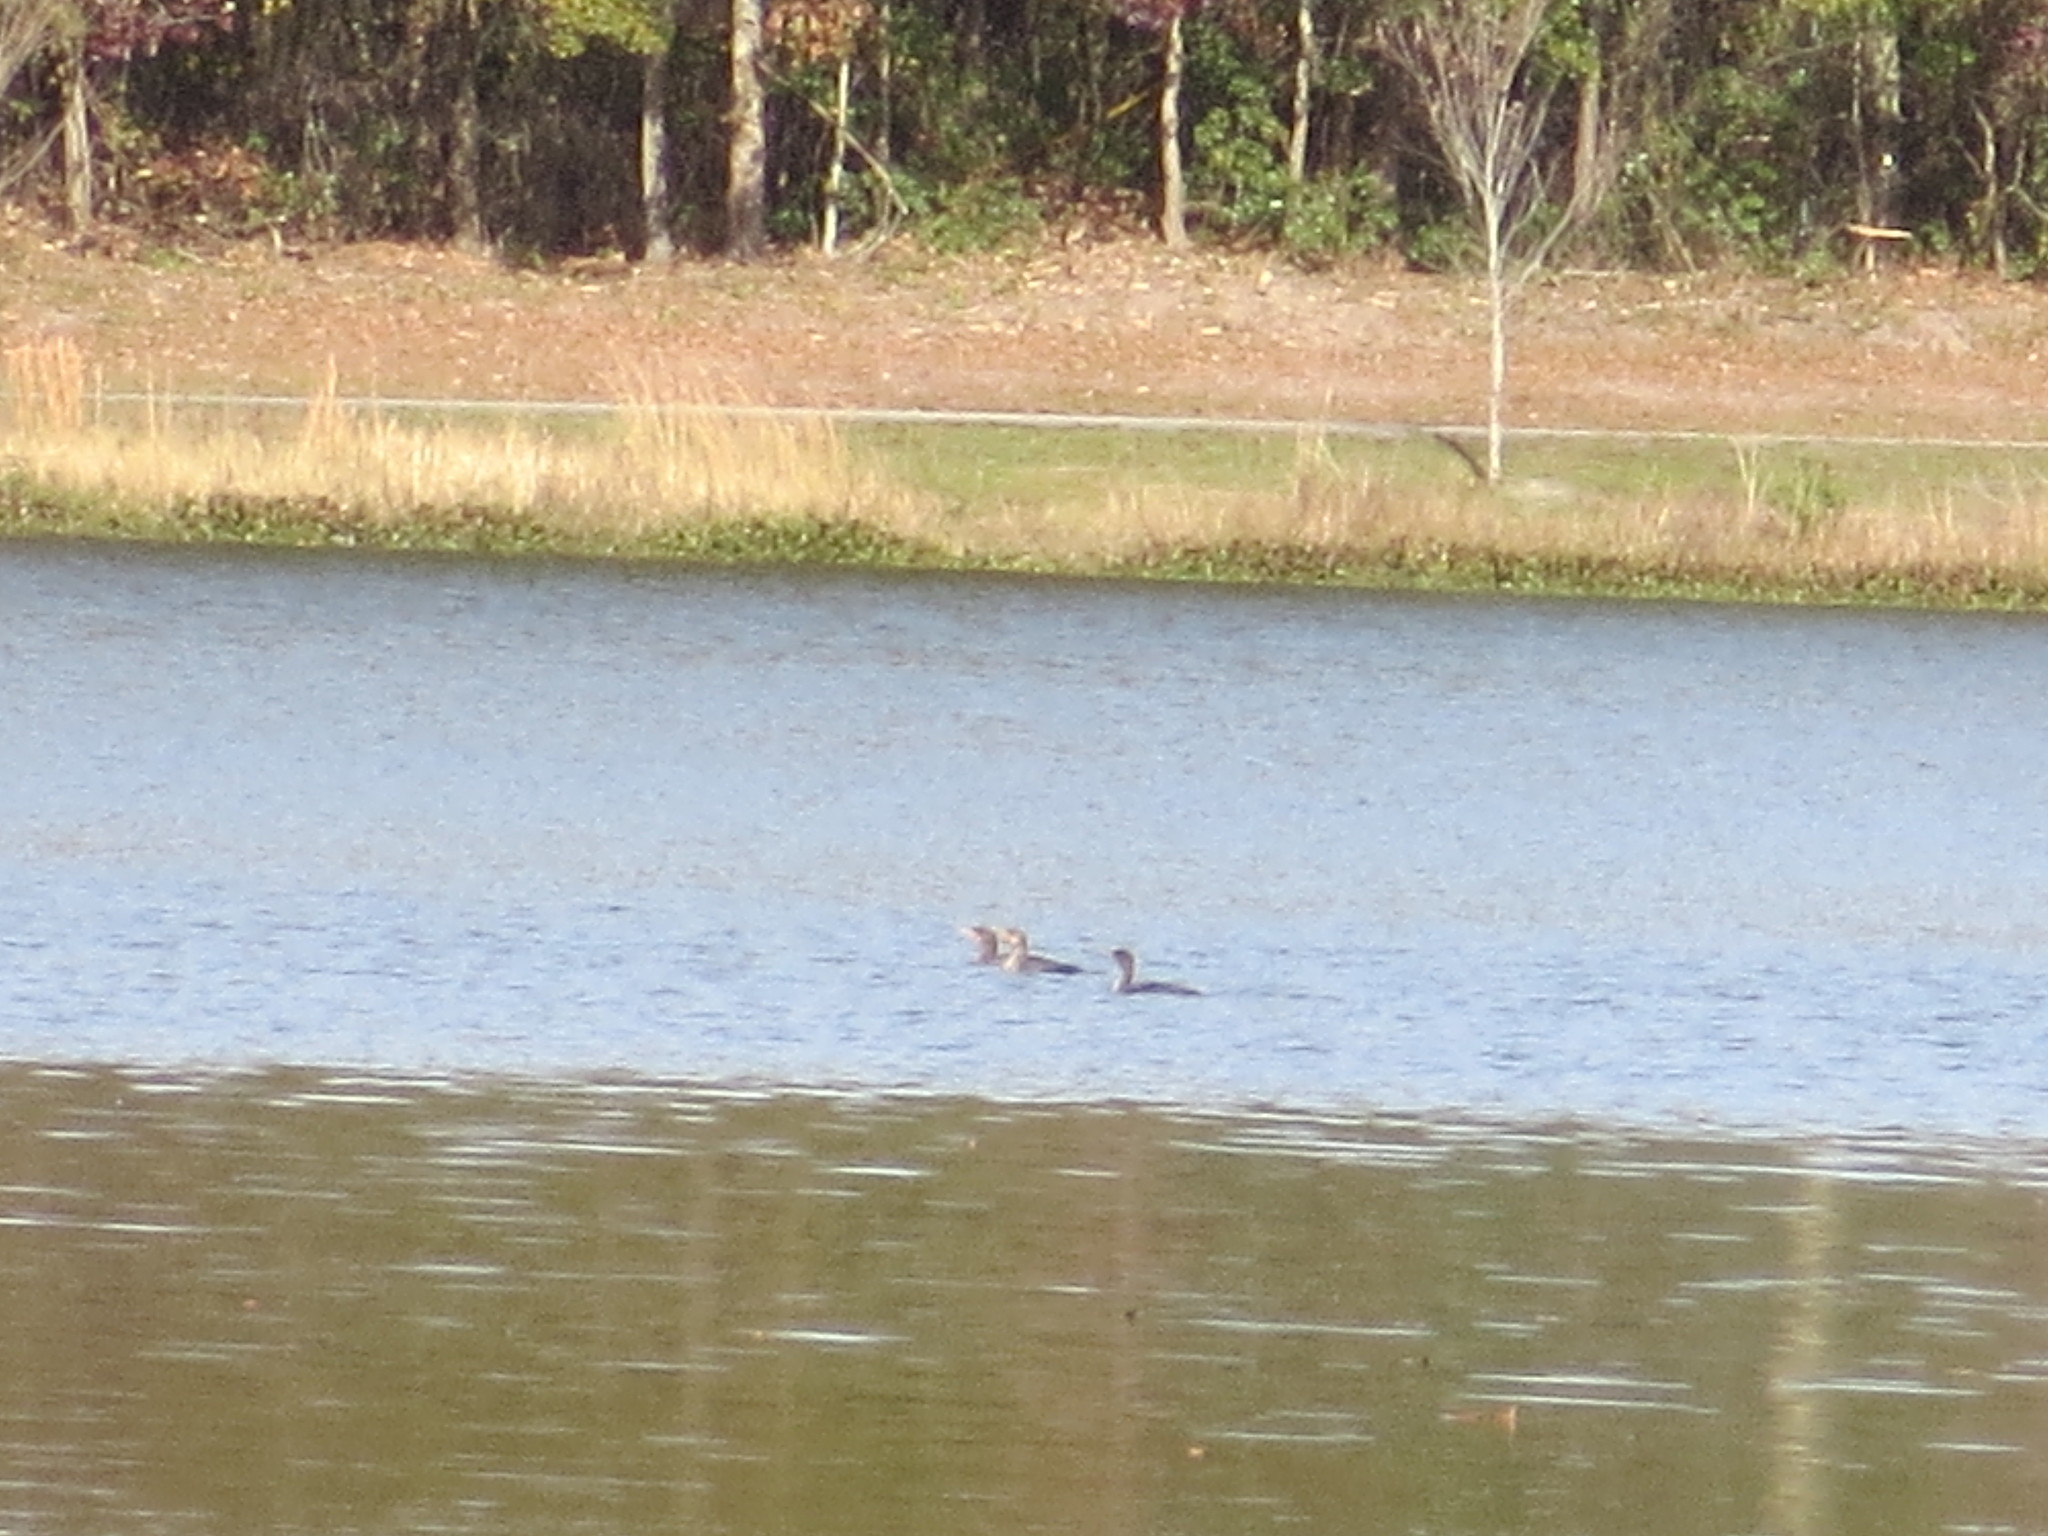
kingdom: Animalia
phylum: Chordata
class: Aves
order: Suliformes
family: Phalacrocoracidae
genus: Phalacrocorax
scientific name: Phalacrocorax auritus
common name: Double-crested cormorant
